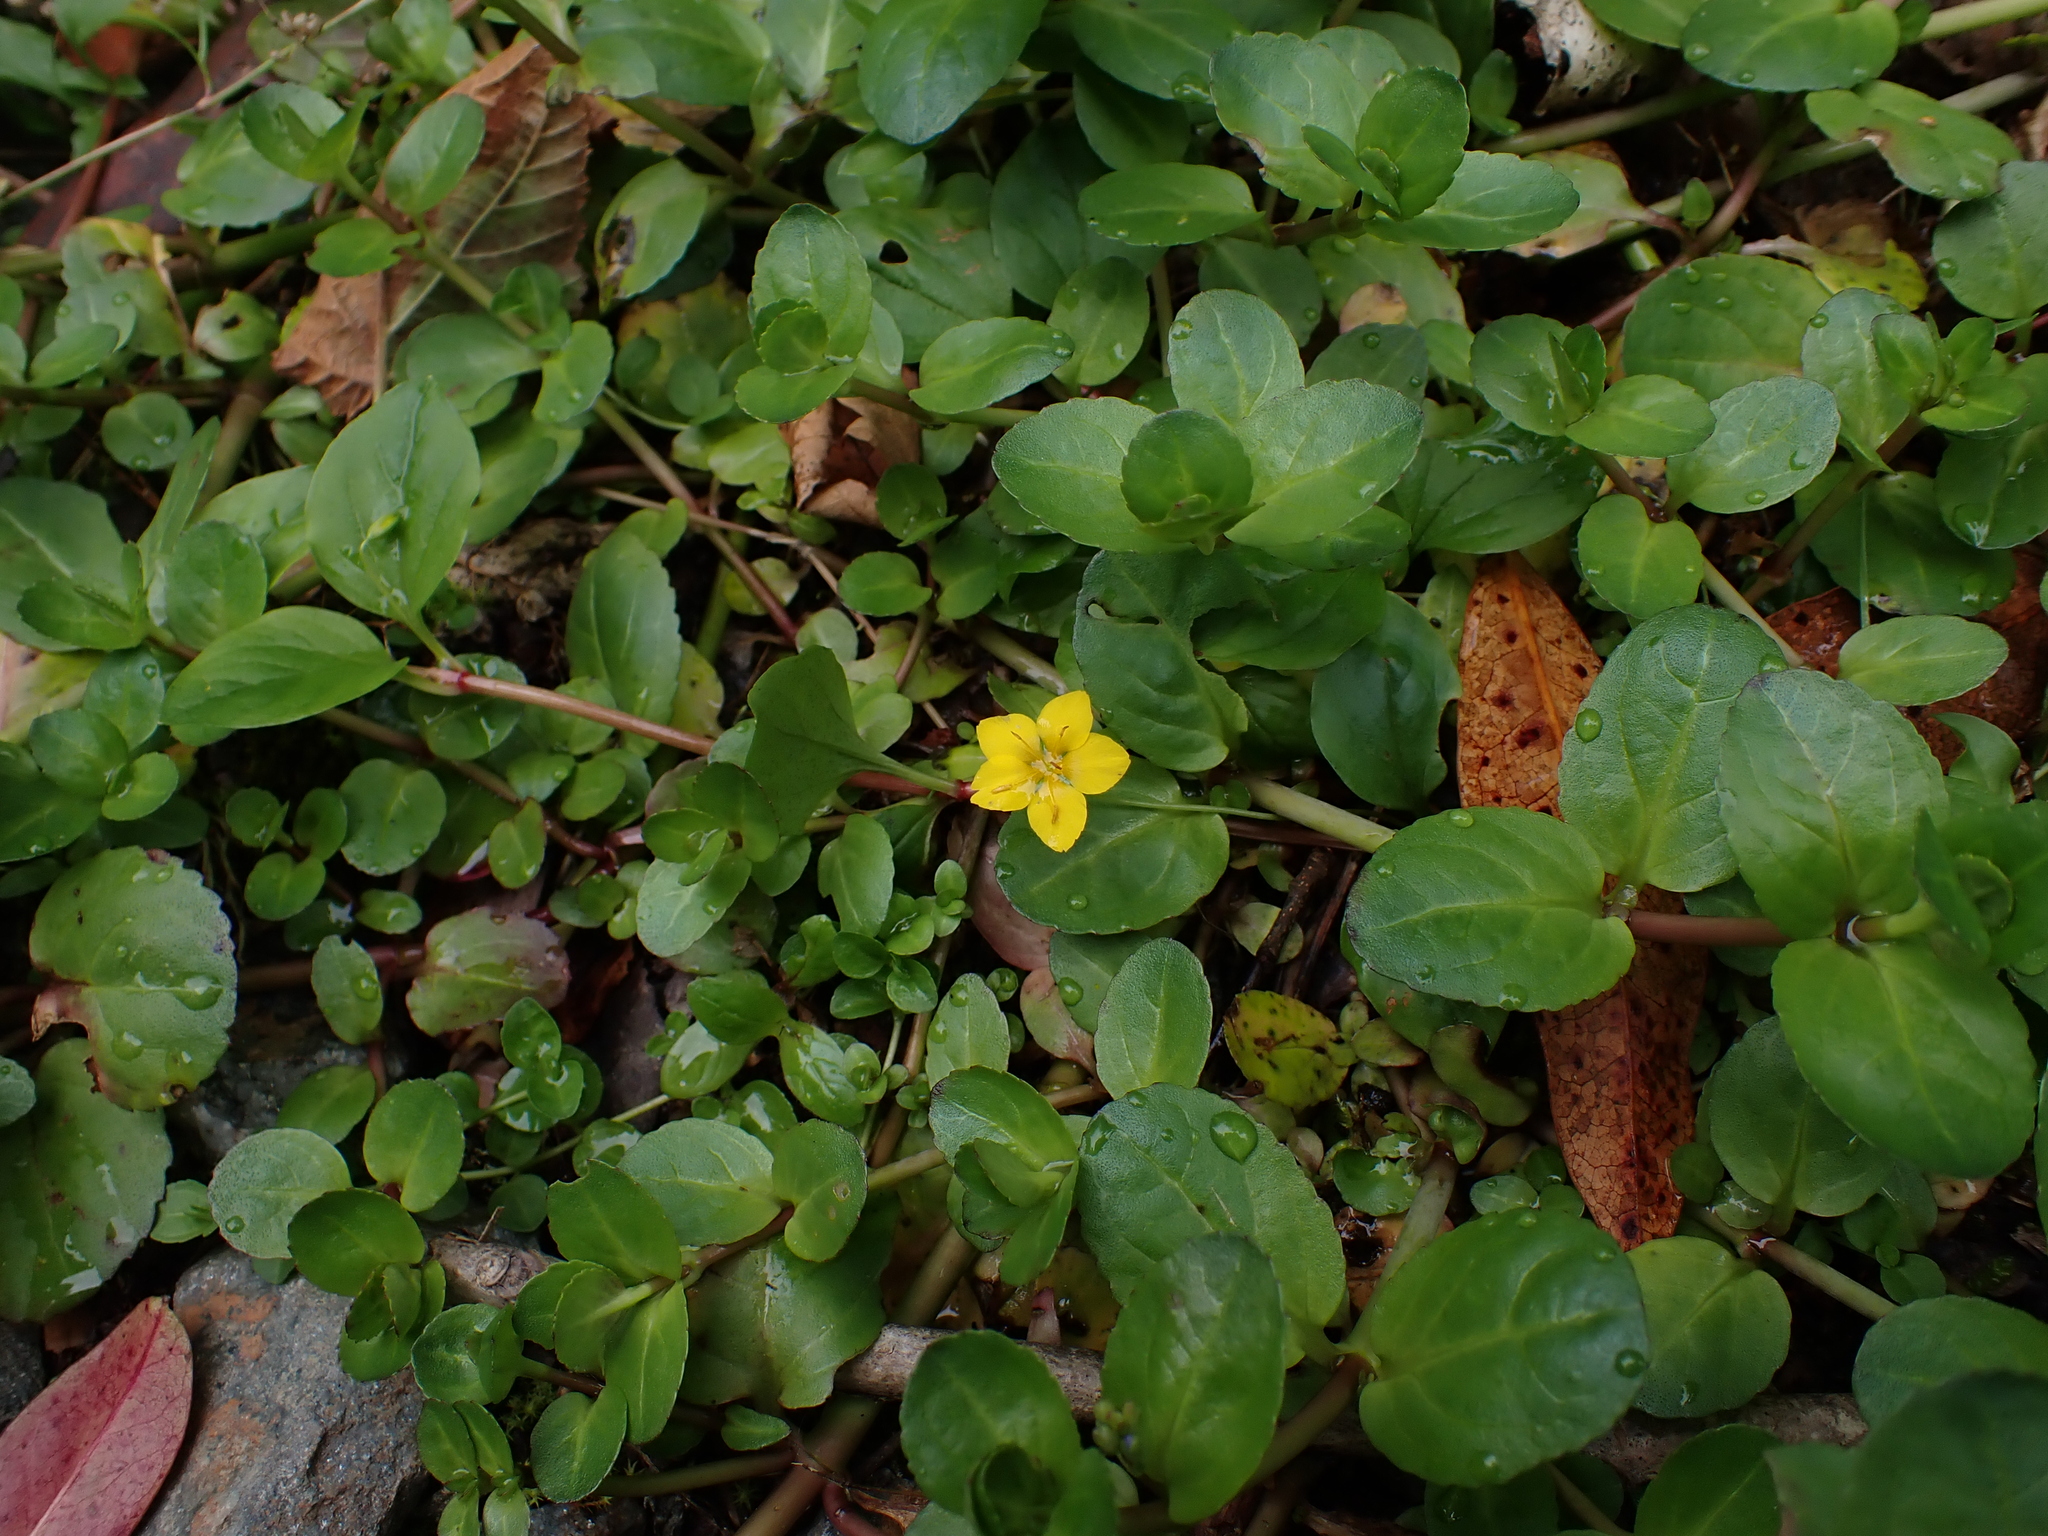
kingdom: Plantae
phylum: Tracheophyta
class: Magnoliopsida
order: Ericales
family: Primulaceae
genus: Lysimachia
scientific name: Lysimachia nemorum
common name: Yellow pimpernel
